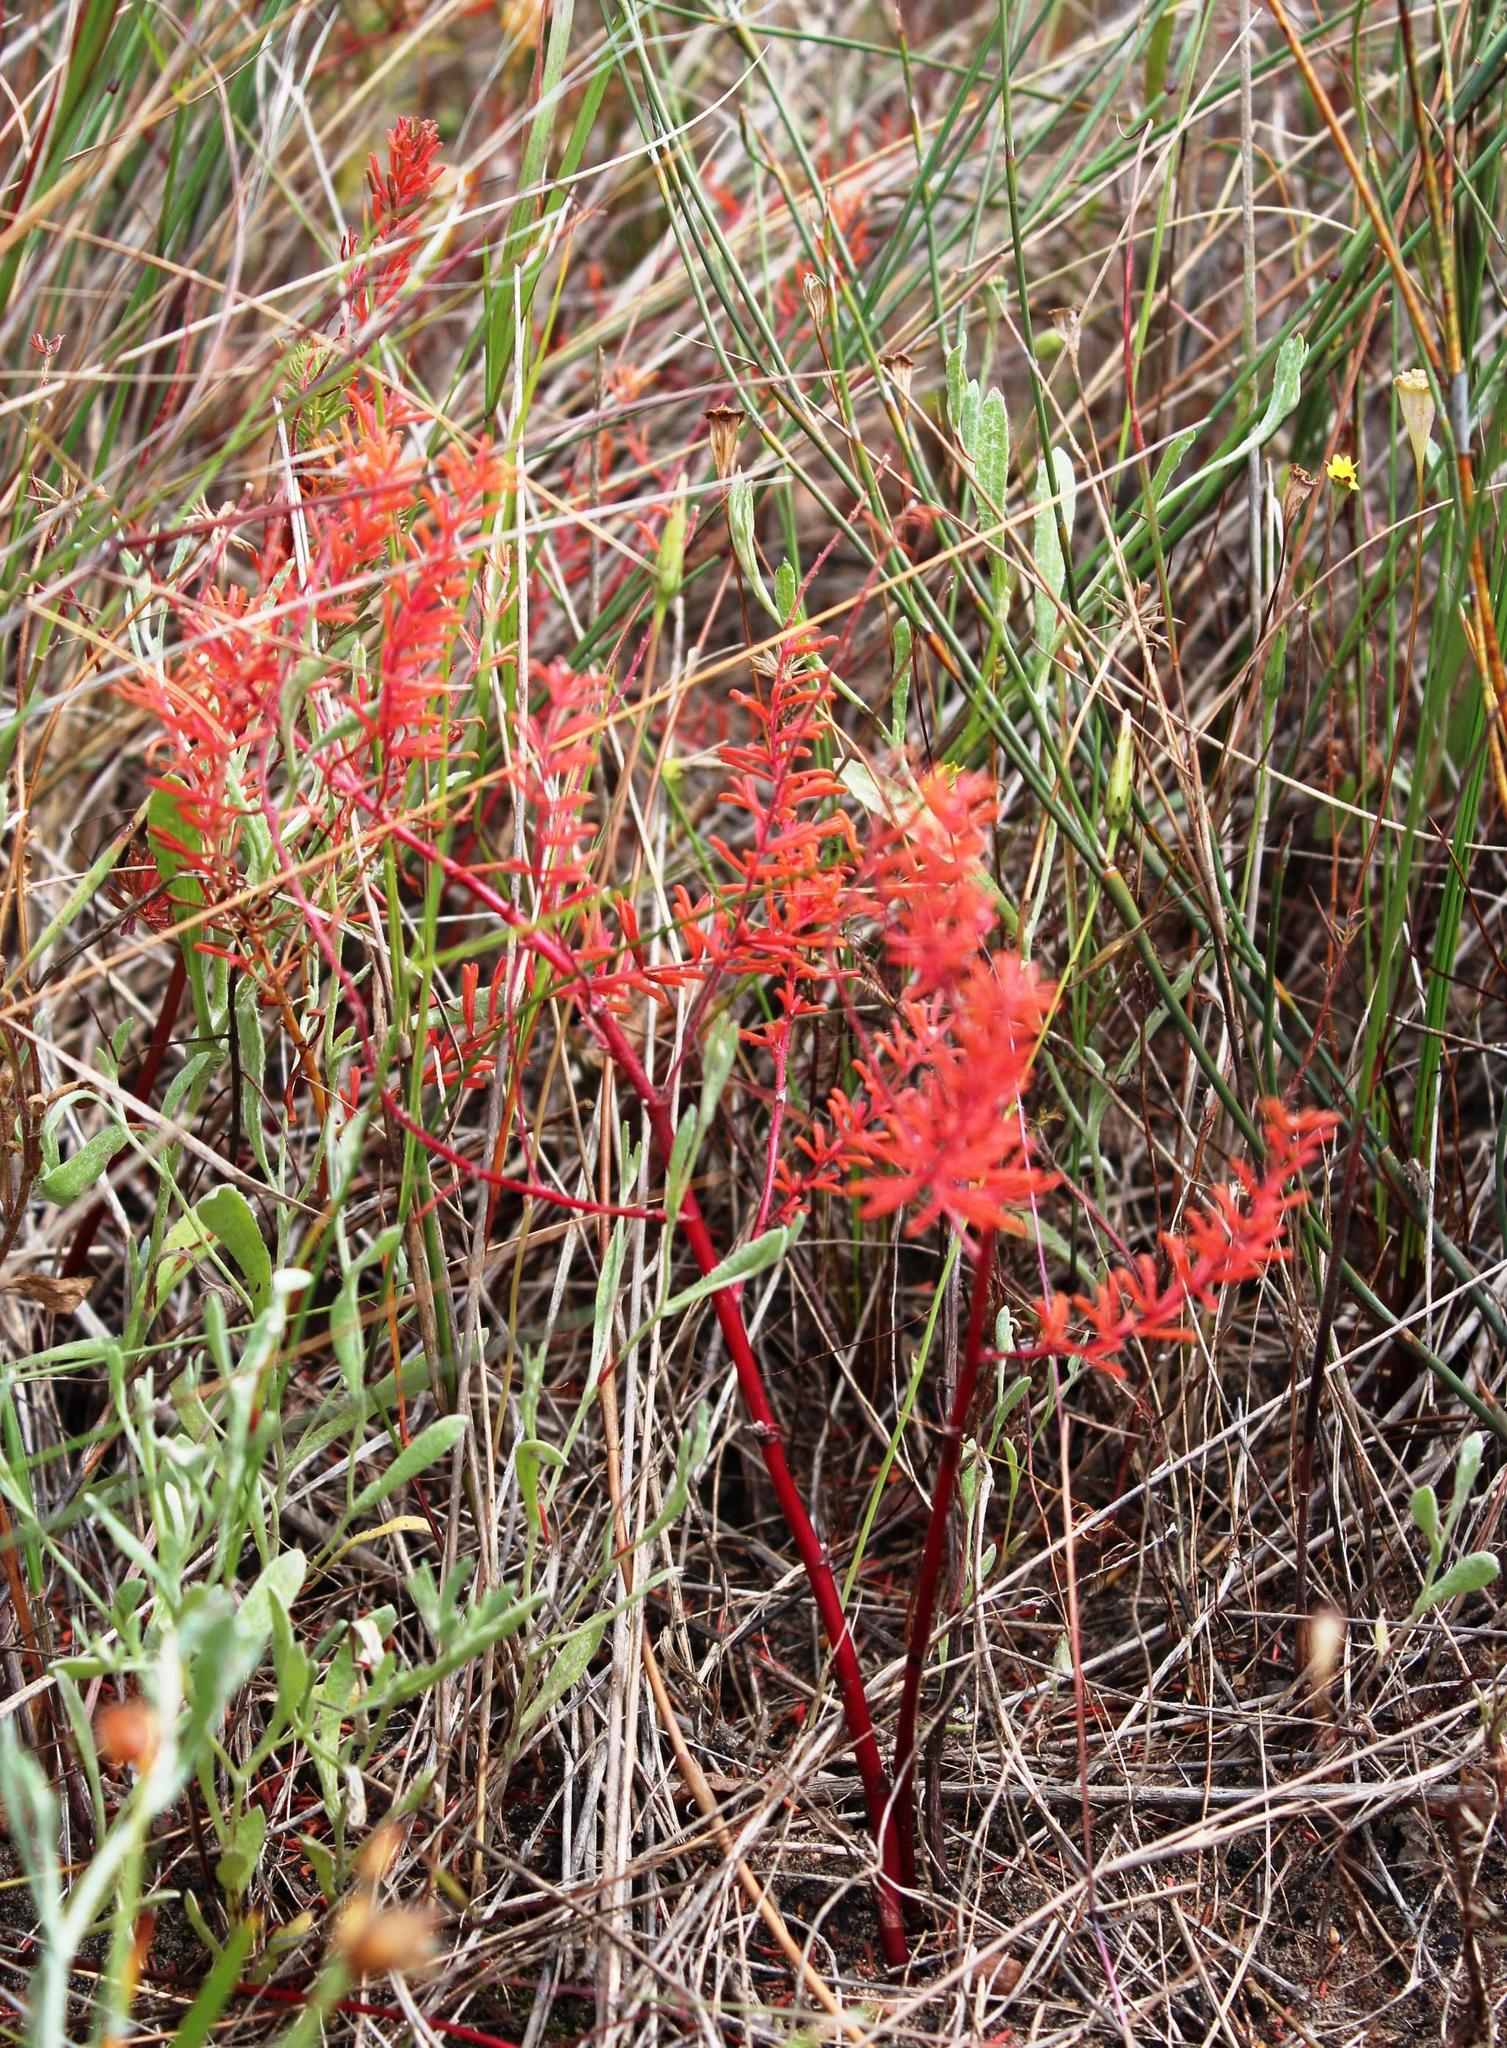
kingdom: Plantae
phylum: Tracheophyta
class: Magnoliopsida
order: Oxalidales
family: Oxalidaceae
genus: Oxalis
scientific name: Oxalis hirta
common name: Tropical woodsorrel
